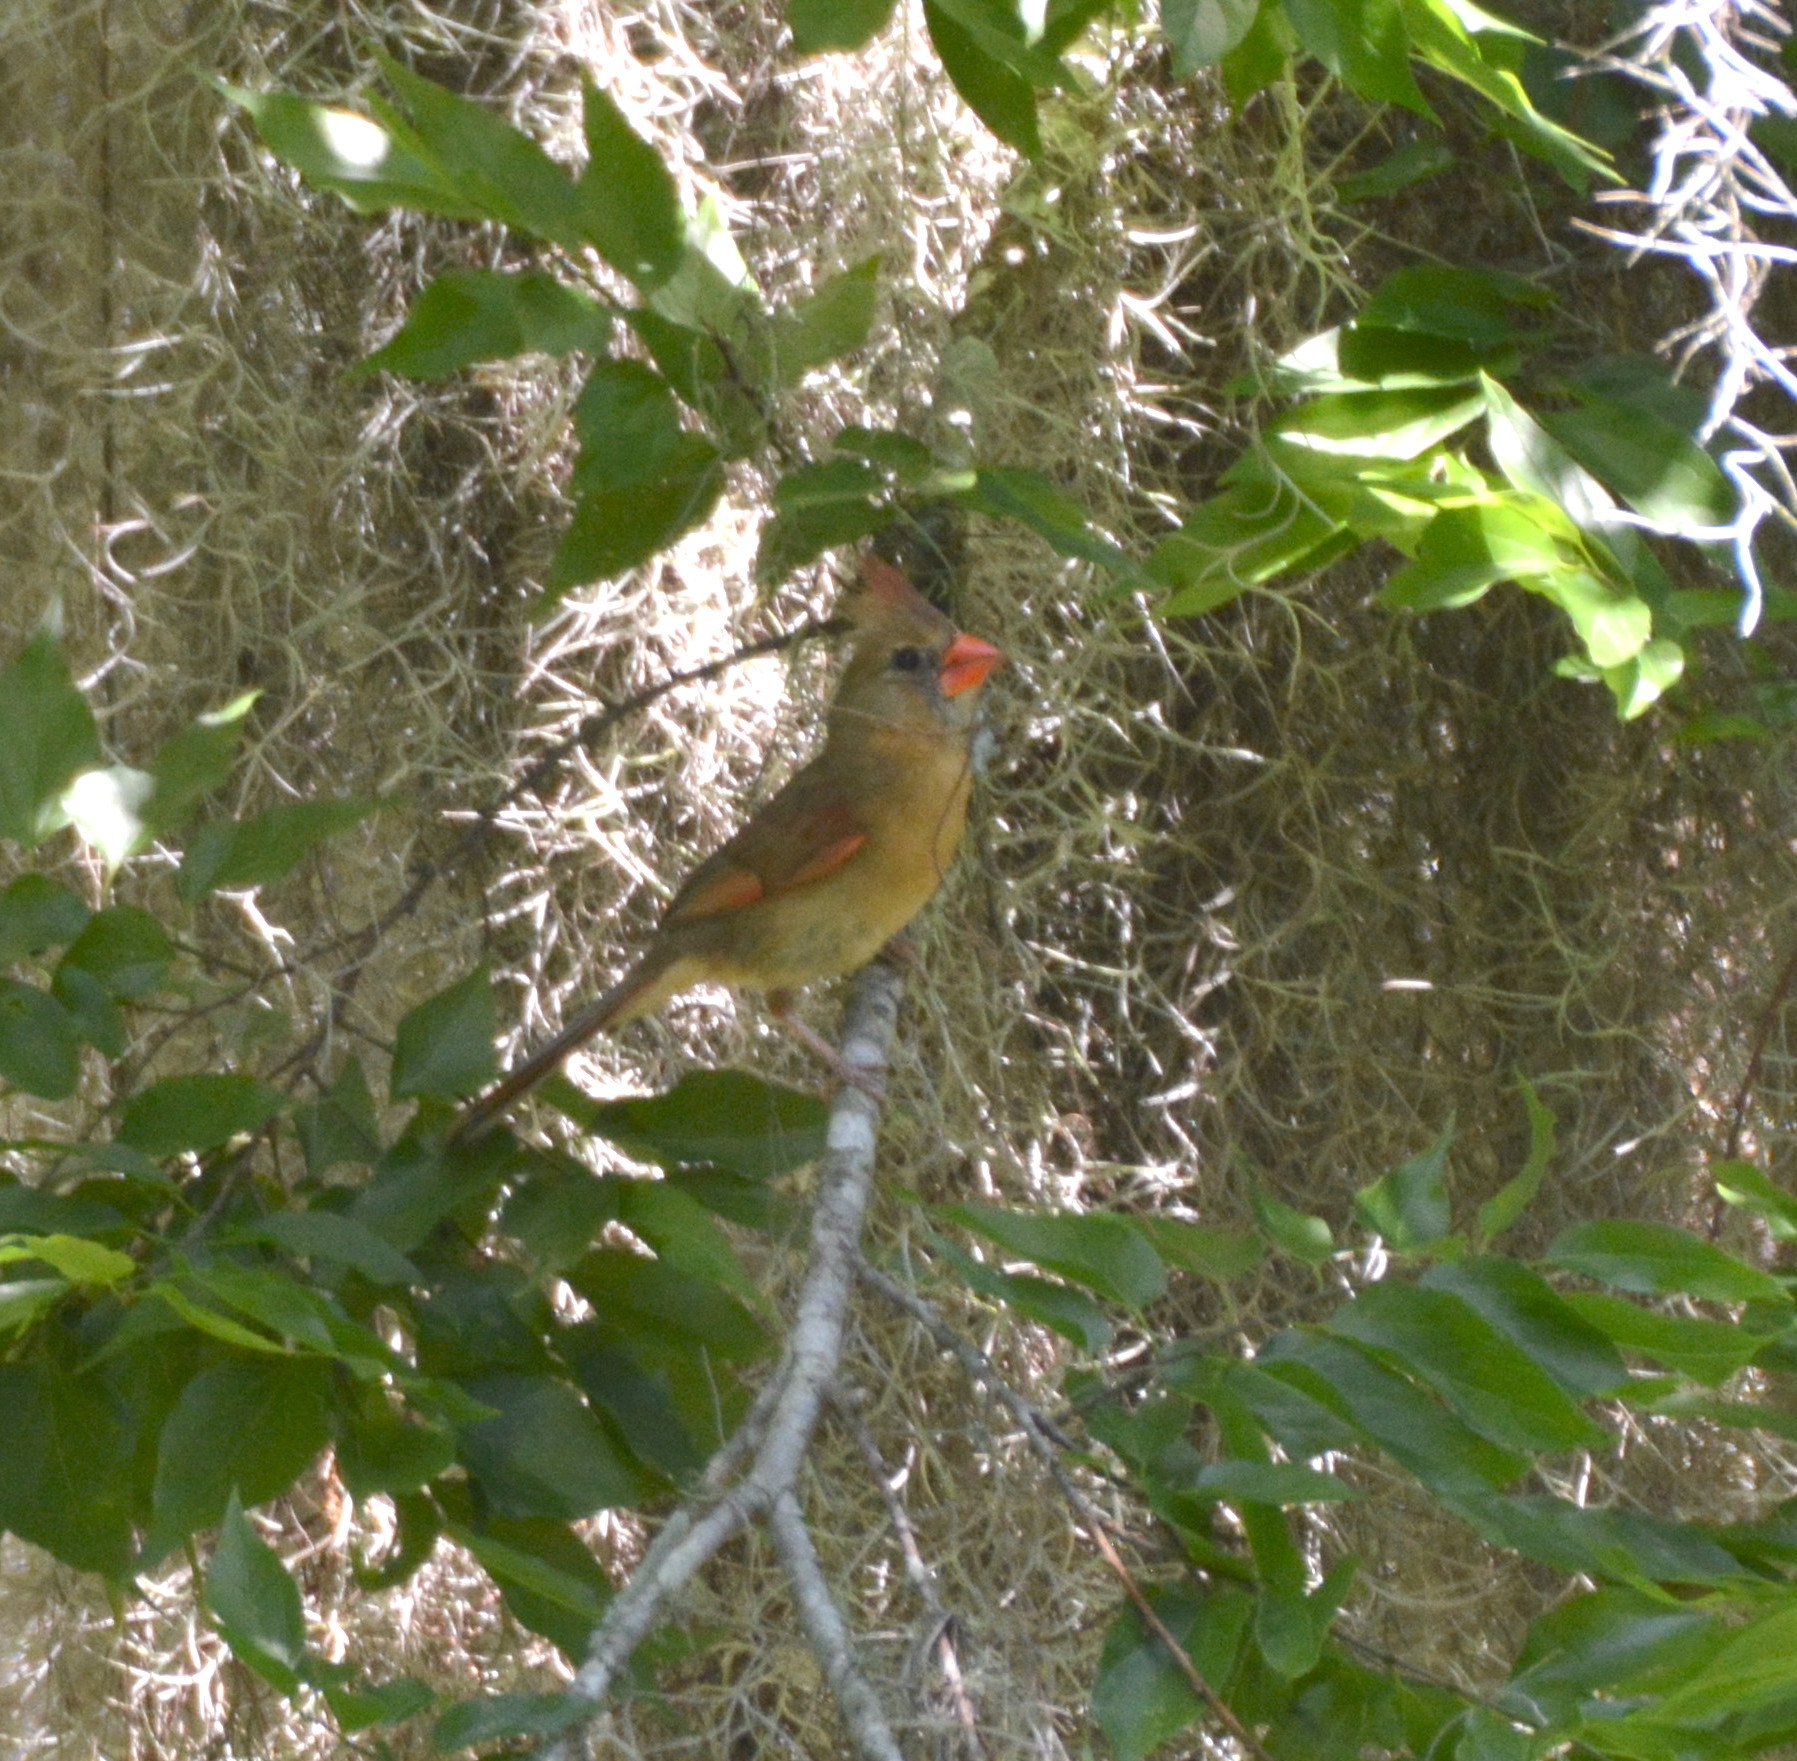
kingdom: Animalia
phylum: Chordata
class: Aves
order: Passeriformes
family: Cardinalidae
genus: Cardinalis
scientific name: Cardinalis cardinalis
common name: Northern cardinal
